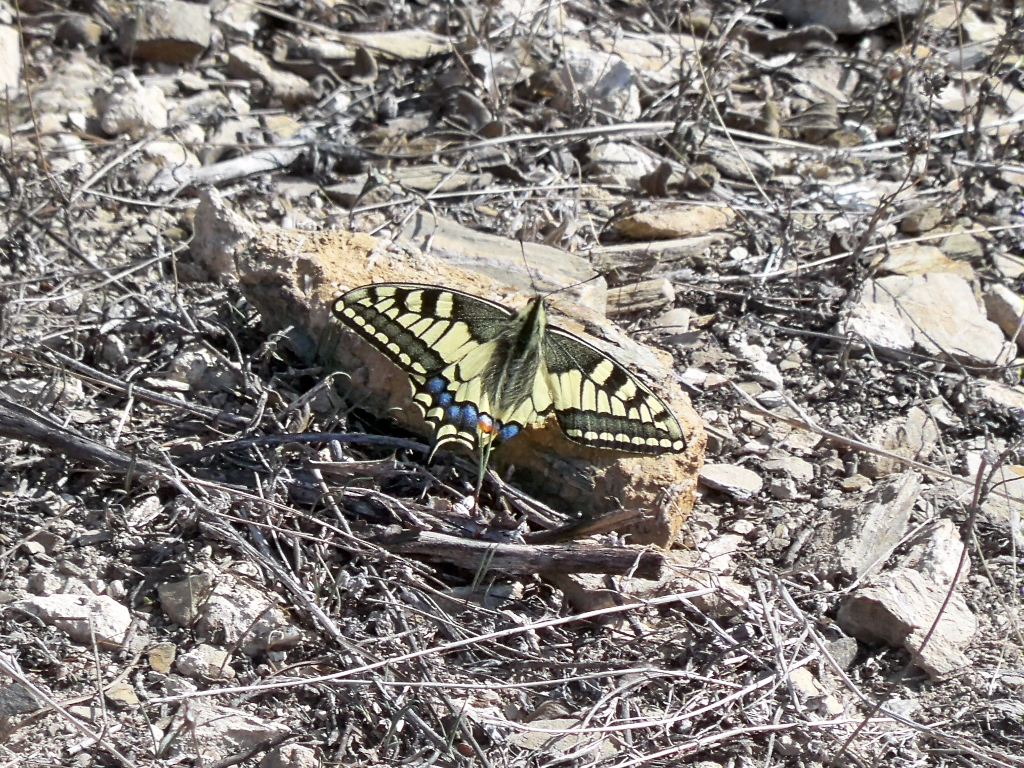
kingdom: Animalia
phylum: Arthropoda
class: Insecta
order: Lepidoptera
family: Papilionidae
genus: Papilio
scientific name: Papilio machaon
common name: Swallowtail
